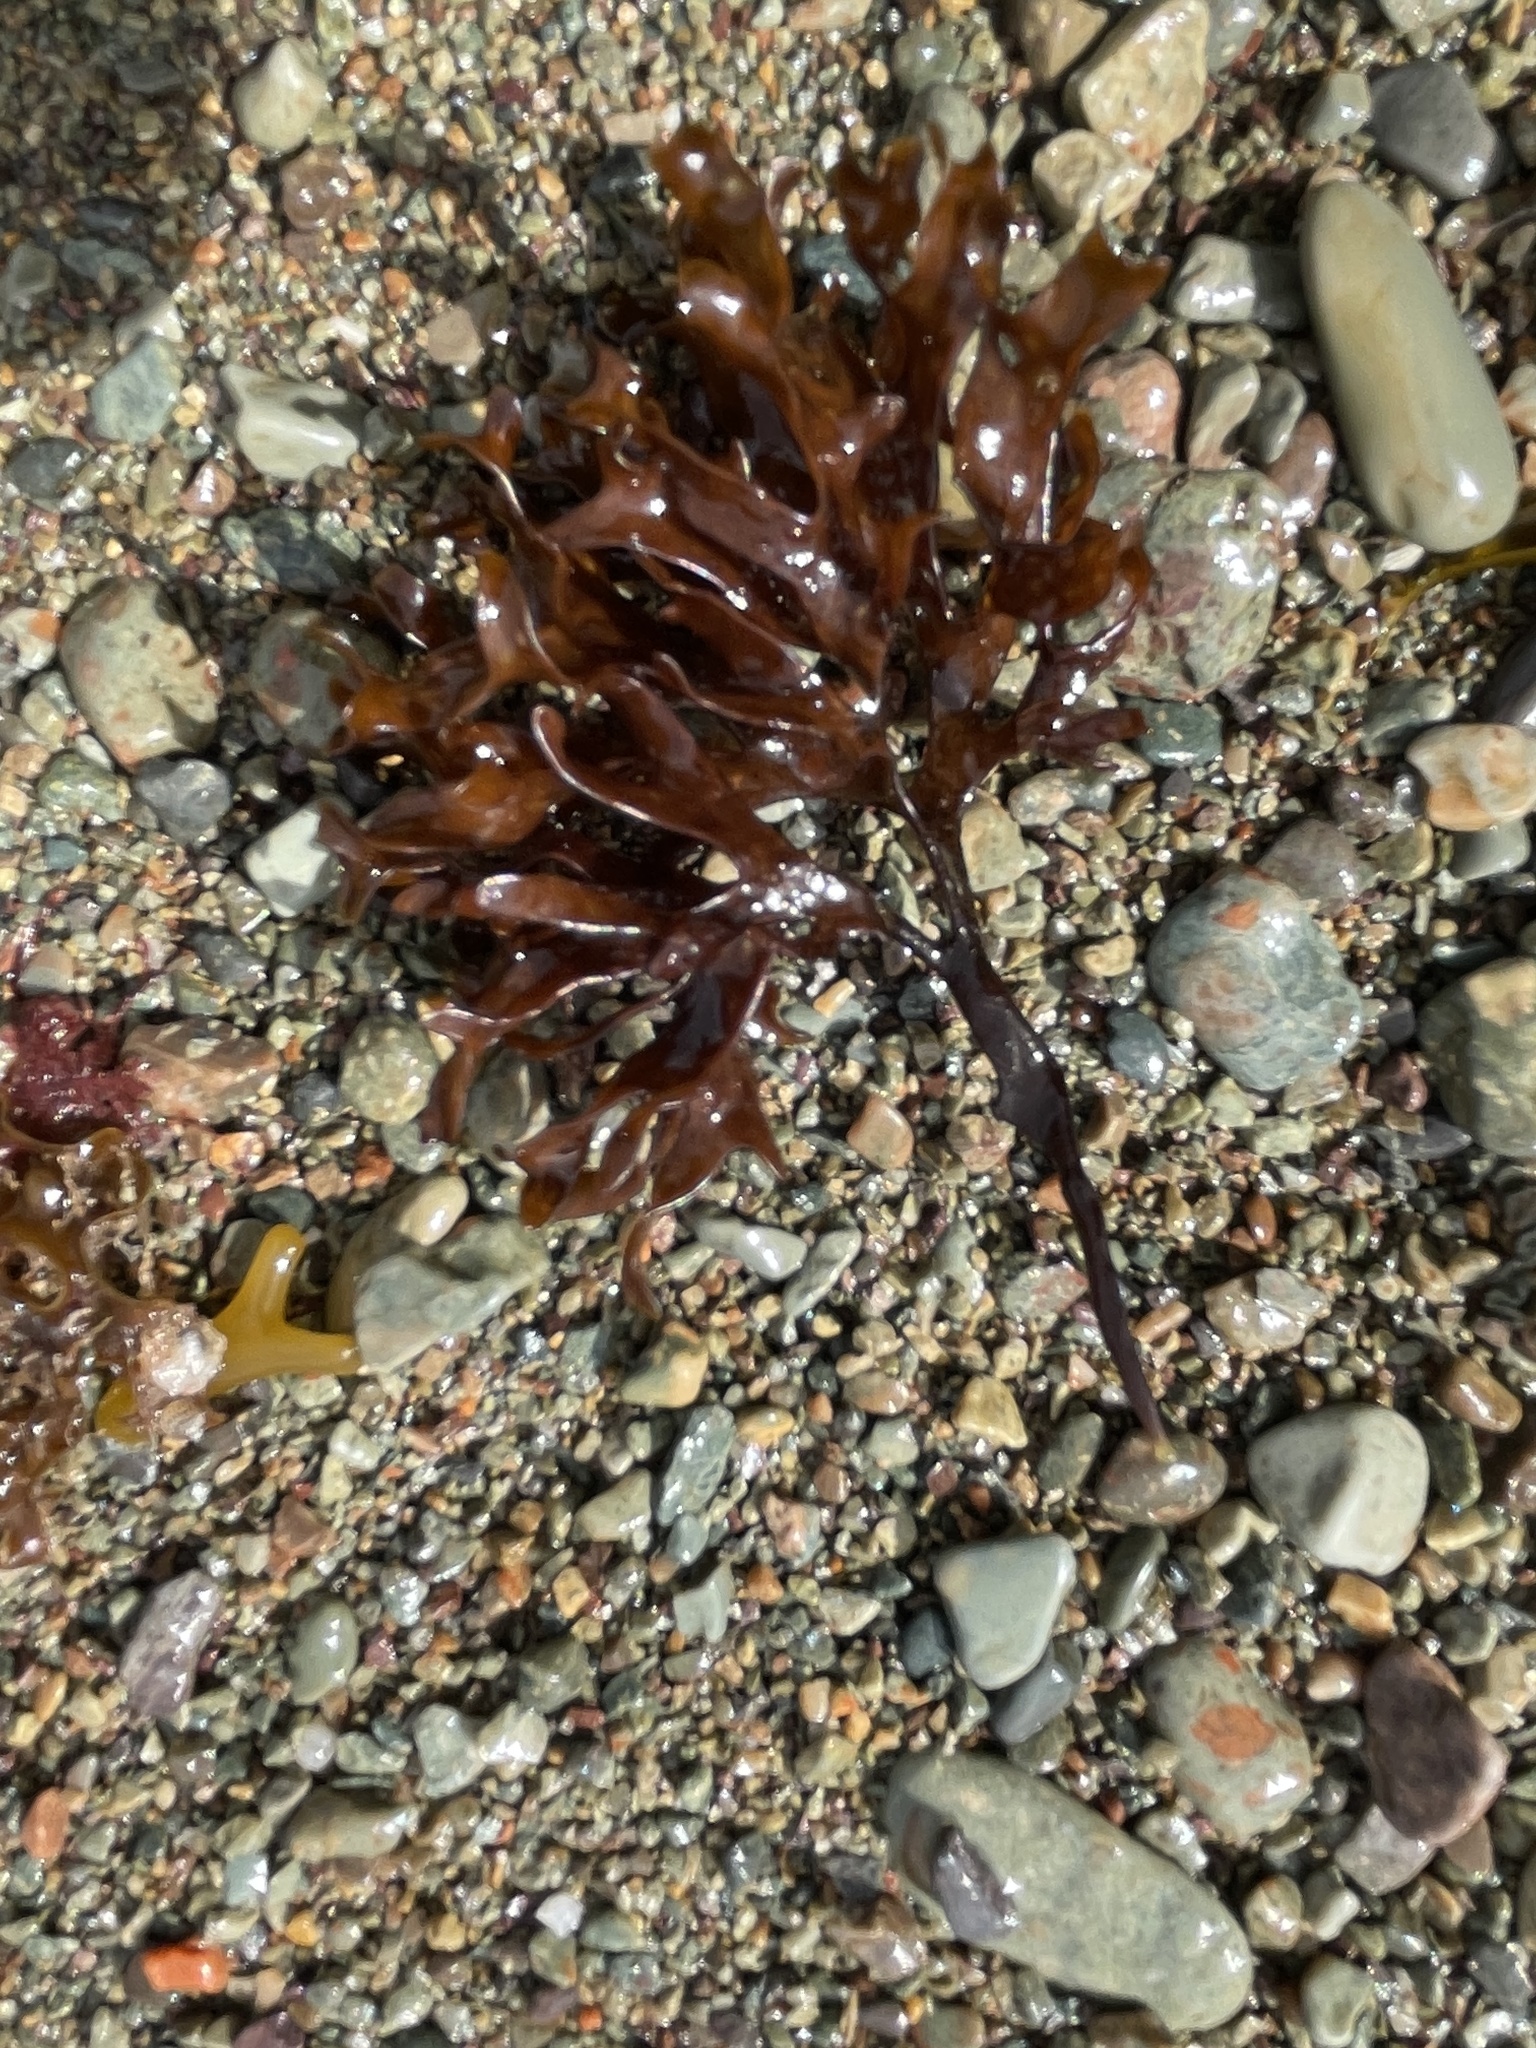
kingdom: Plantae
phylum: Rhodophyta
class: Florideophyceae
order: Gigartinales
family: Gigartinaceae
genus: Chondrus
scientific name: Chondrus crispus
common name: Carrageen
